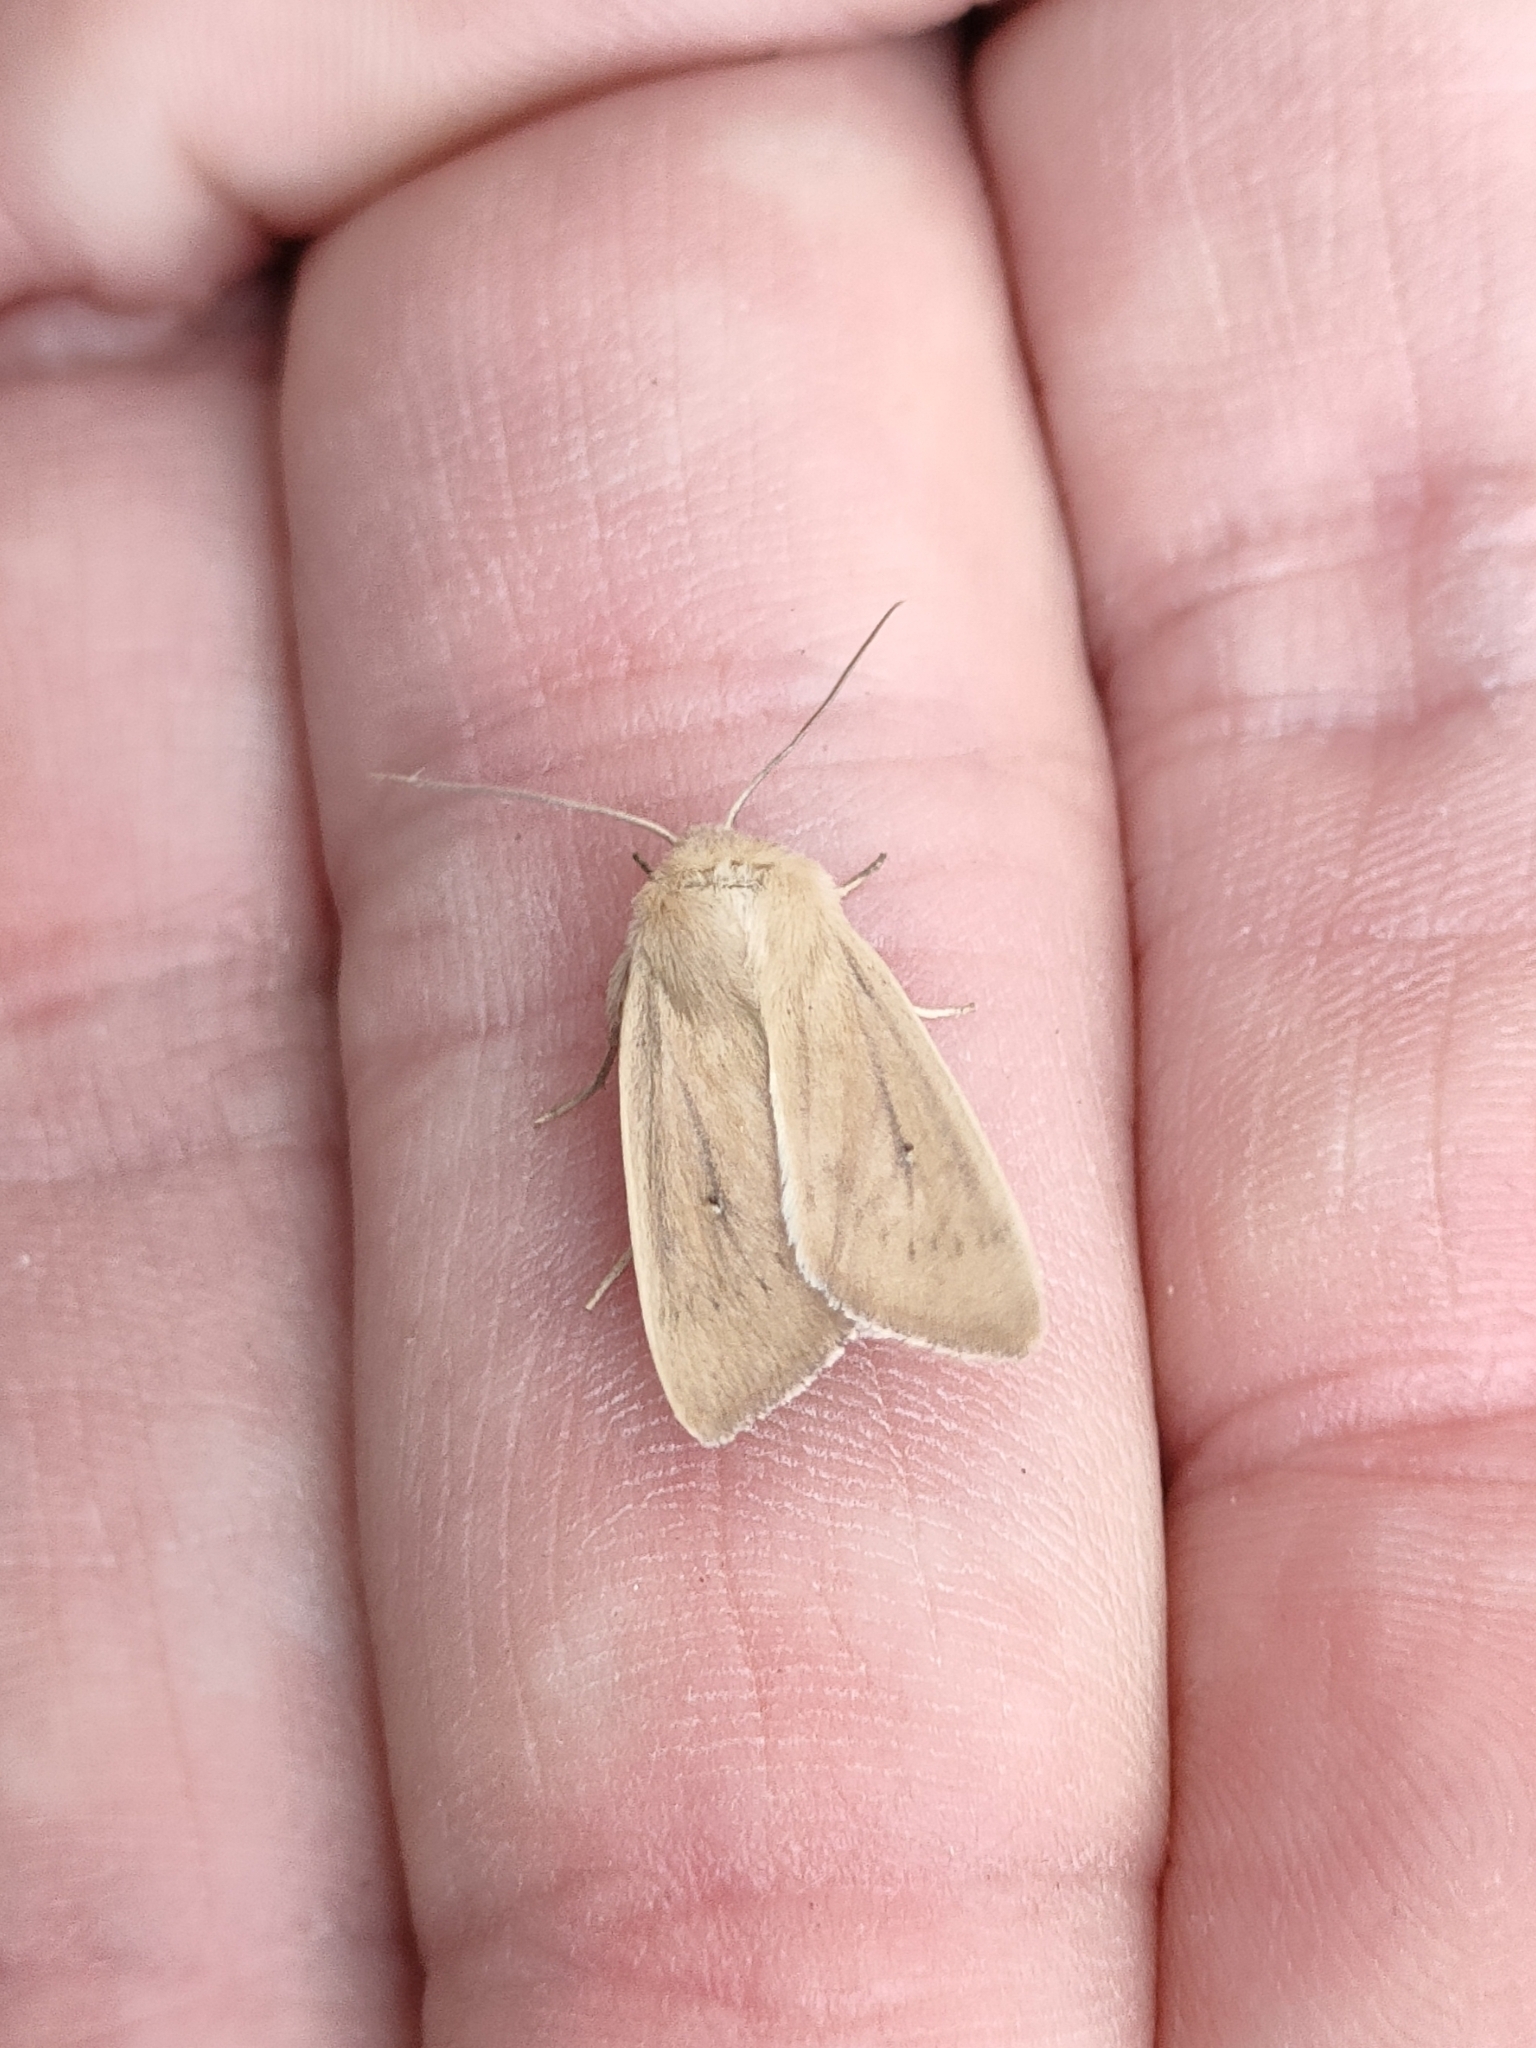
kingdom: Animalia
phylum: Arthropoda
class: Insecta
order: Lepidoptera
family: Noctuidae
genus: Mythimna
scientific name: Mythimna sicula
